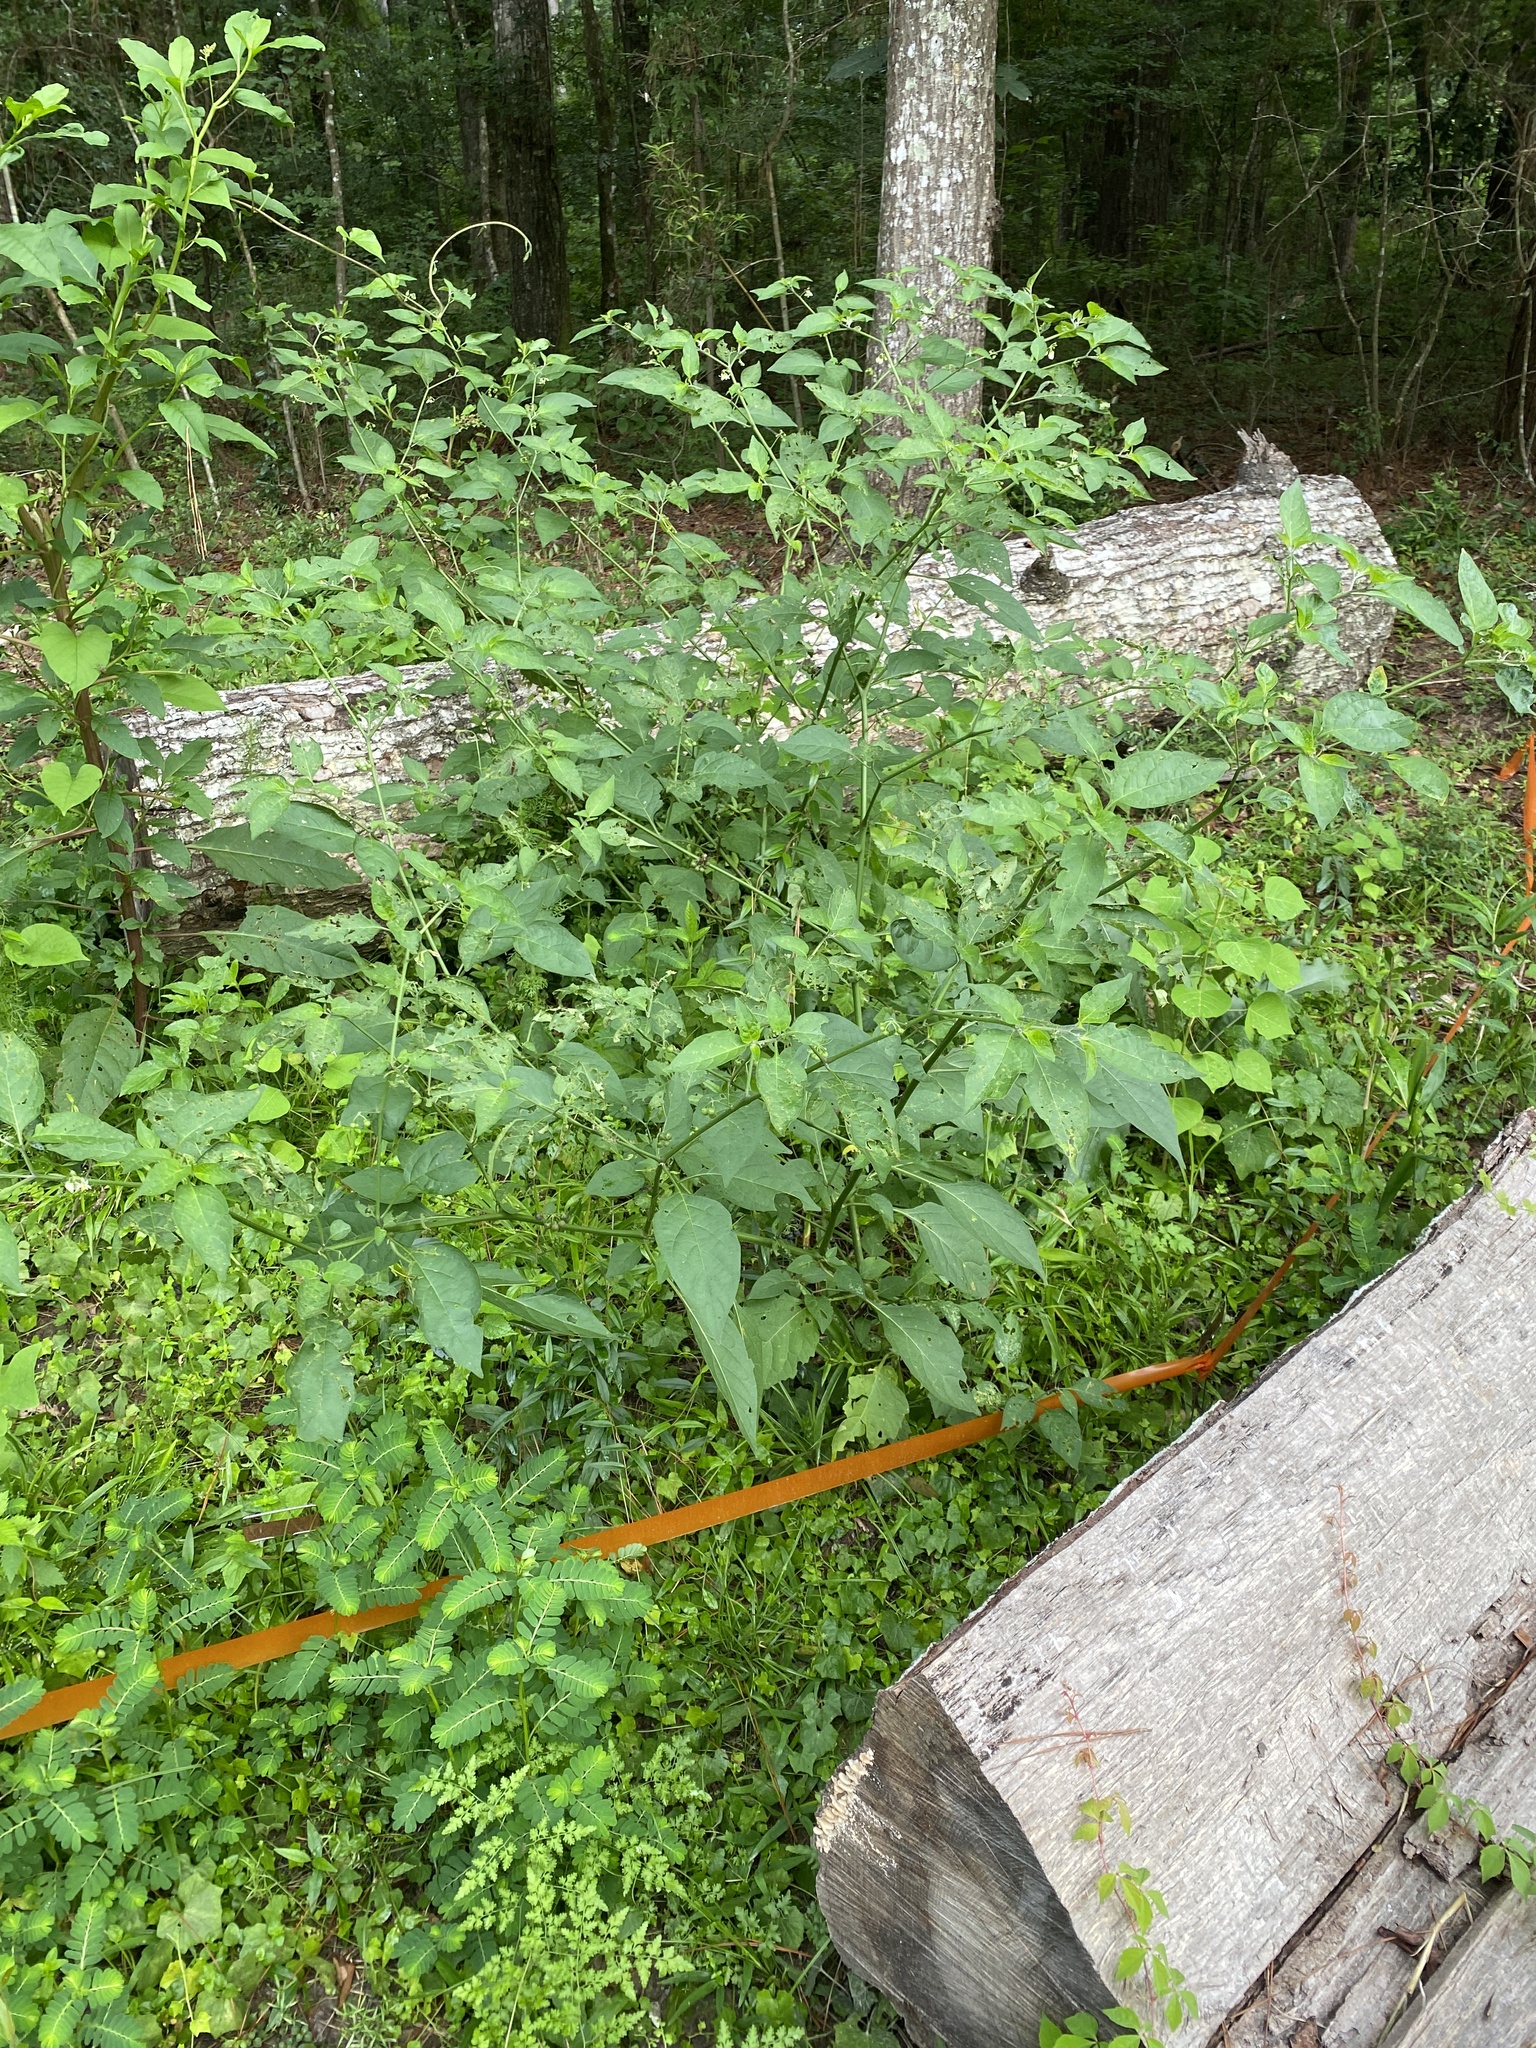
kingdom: Plantae
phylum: Tracheophyta
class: Magnoliopsida
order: Solanales
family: Solanaceae
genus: Solanum
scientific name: Solanum pseudogracile
